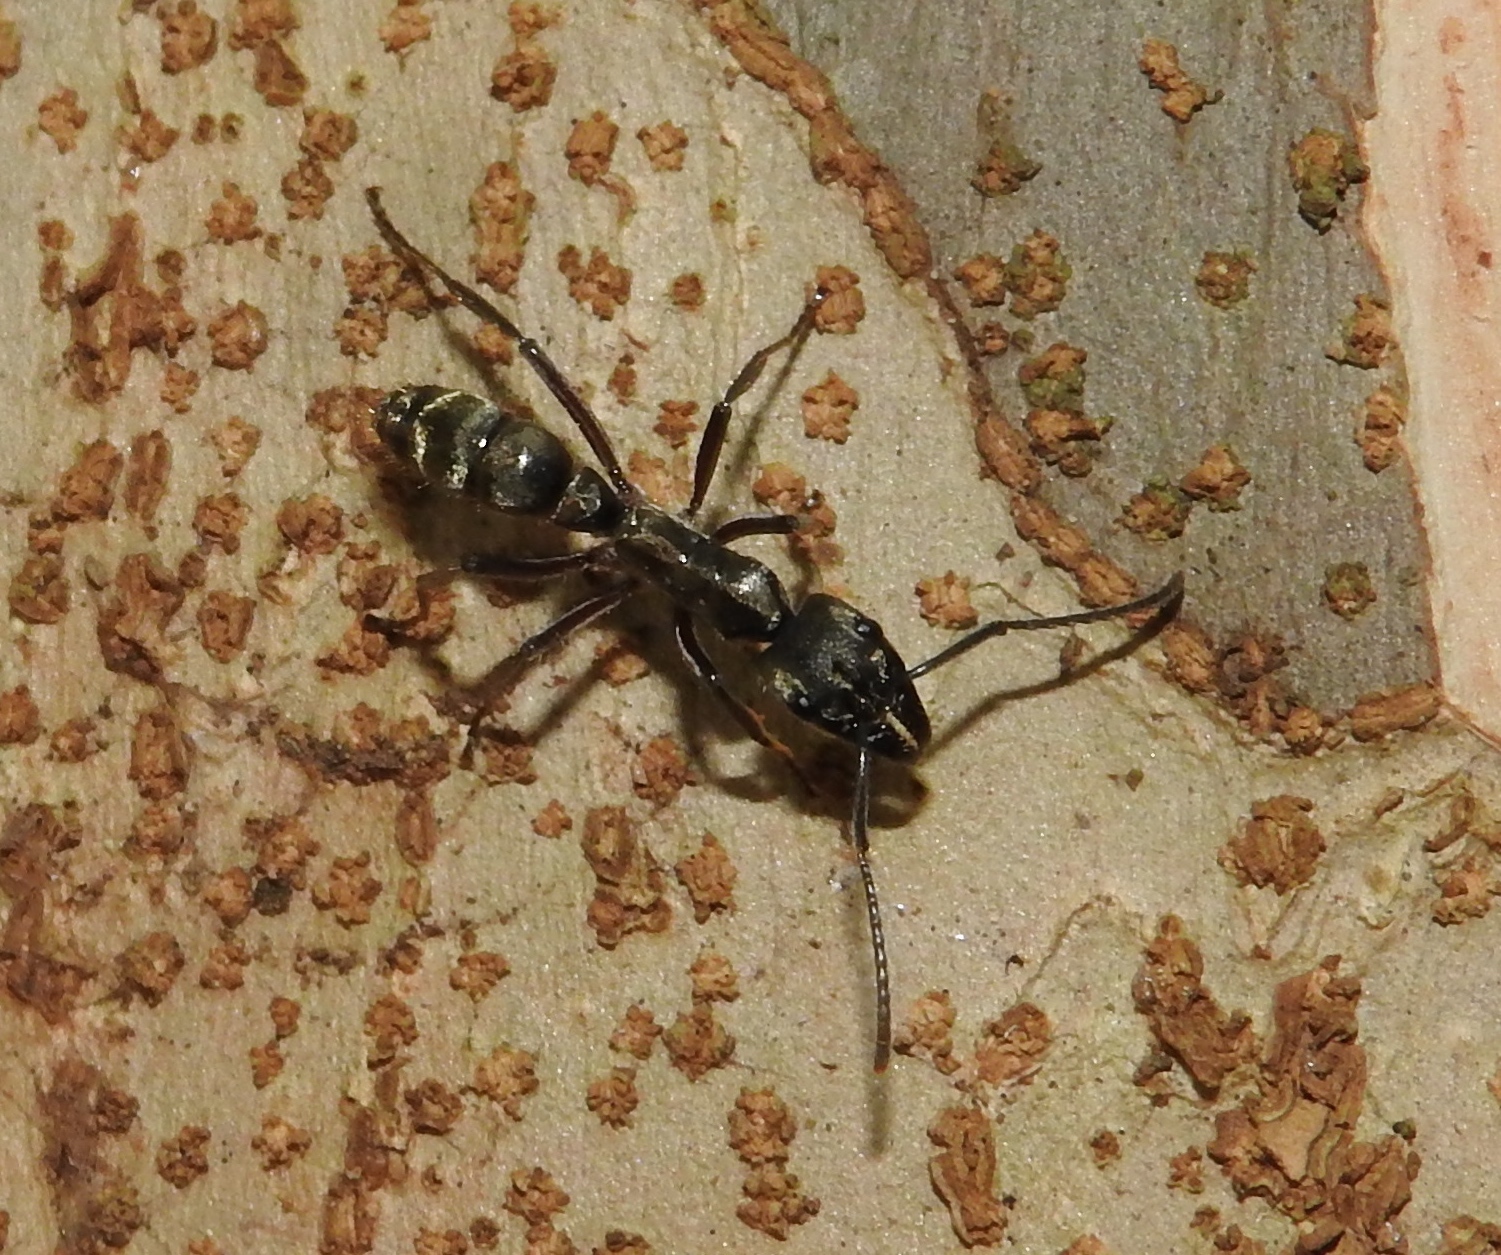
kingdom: Animalia
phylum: Arthropoda
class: Insecta
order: Hymenoptera
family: Formicidae
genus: Pachycondyla
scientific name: Pachycondyla villosa
